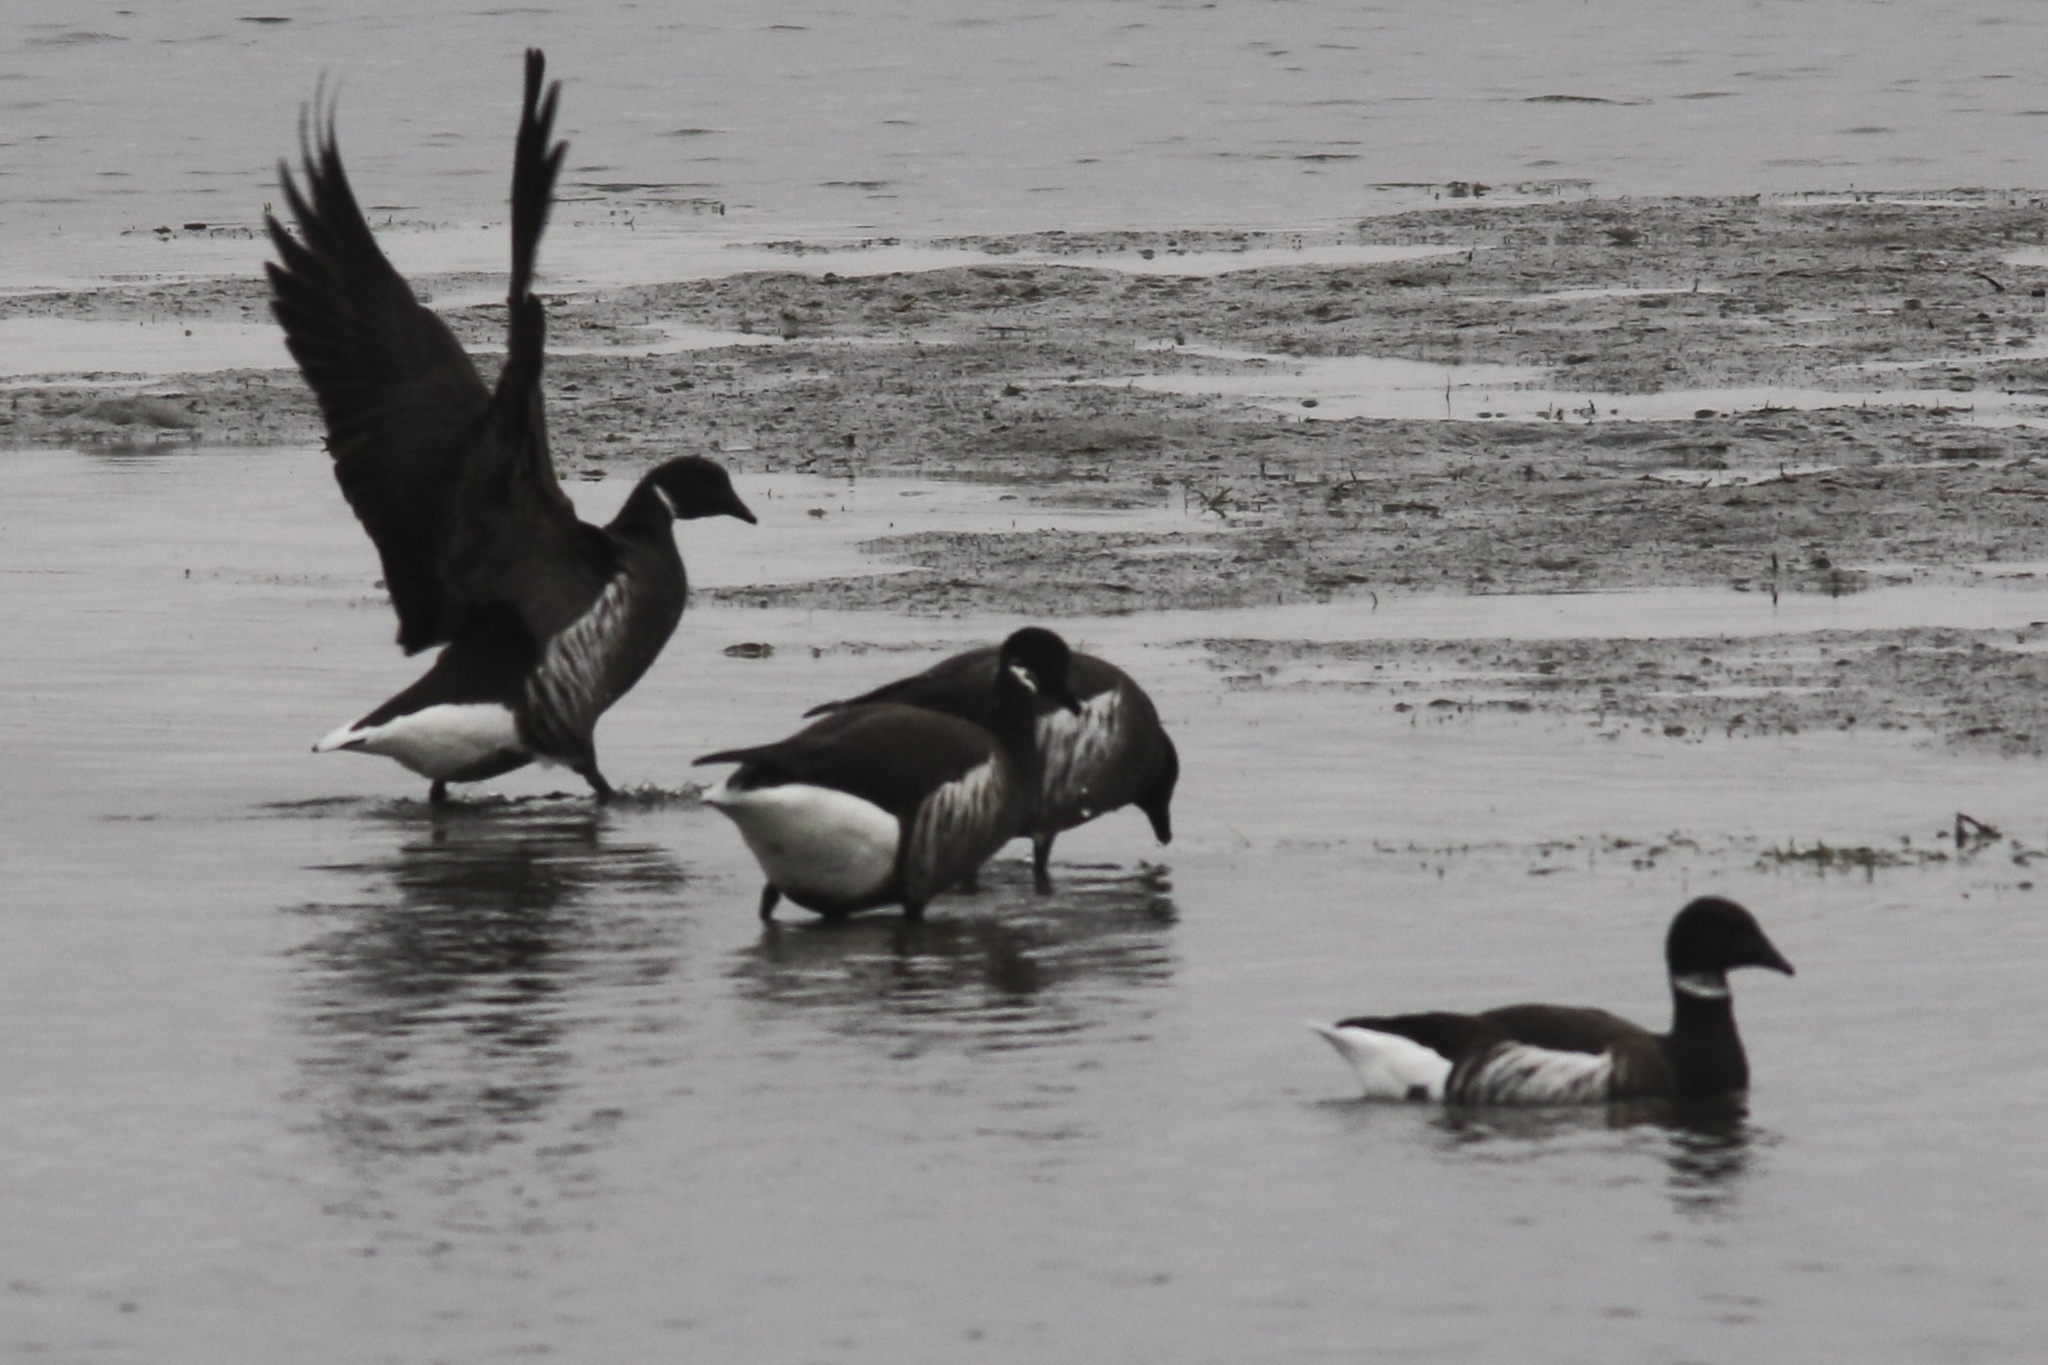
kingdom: Animalia
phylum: Chordata
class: Aves
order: Anseriformes
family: Anatidae
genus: Branta
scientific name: Branta bernicla
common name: Brant goose
